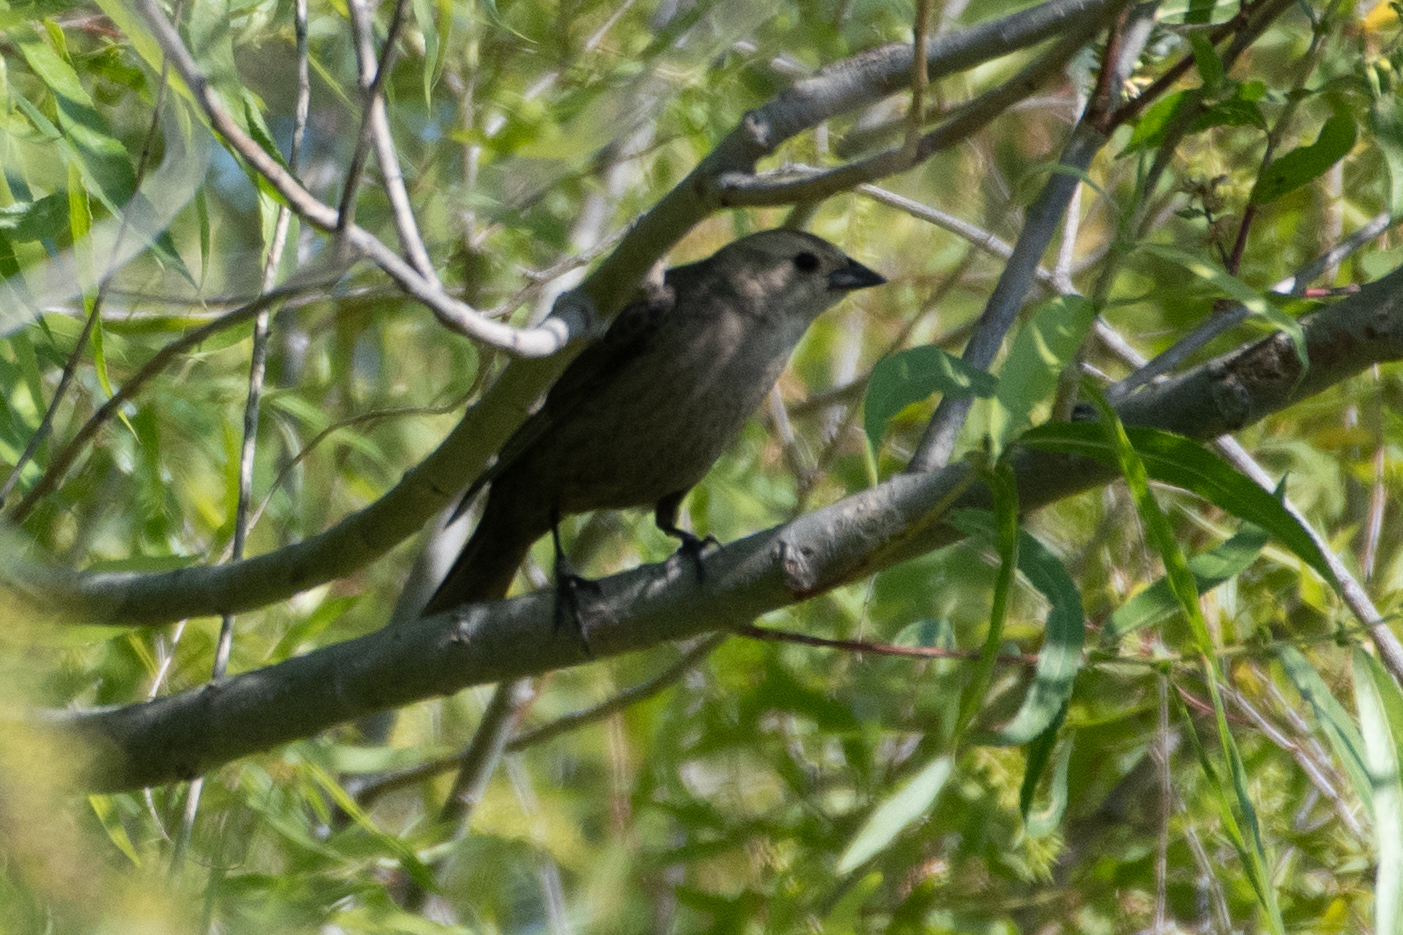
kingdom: Animalia
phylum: Chordata
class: Aves
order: Passeriformes
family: Icteridae
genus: Molothrus
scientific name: Molothrus ater
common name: Brown-headed cowbird
